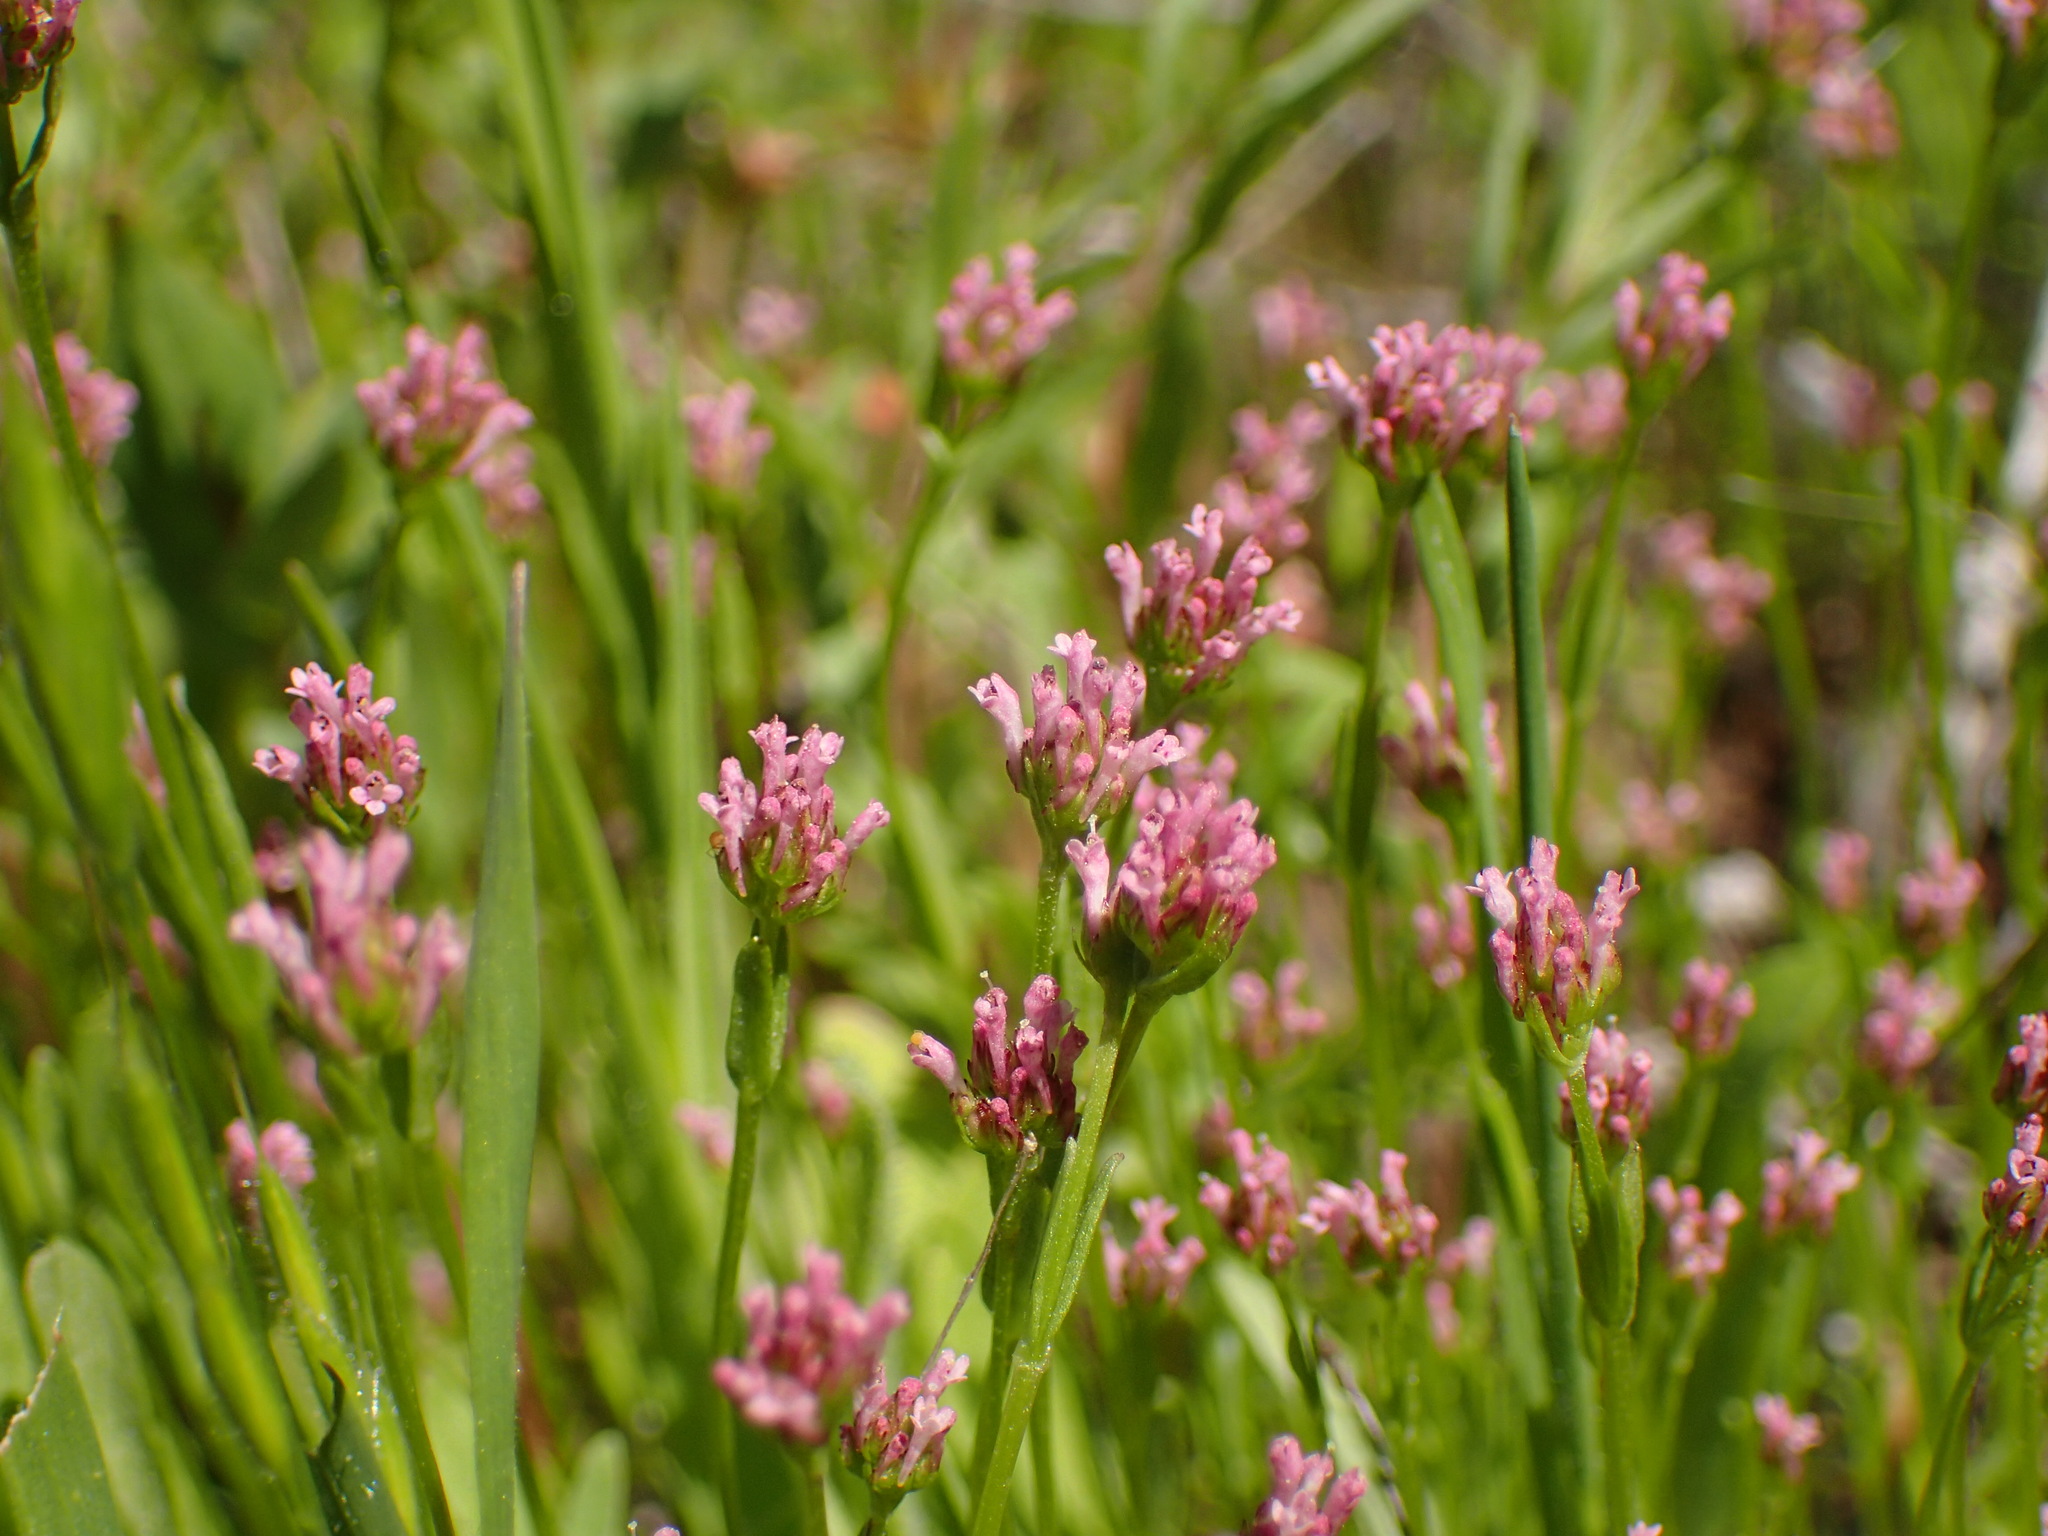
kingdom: Plantae
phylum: Tracheophyta
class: Magnoliopsida
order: Dipsacales
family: Caprifoliaceae
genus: Plectritis
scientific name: Plectritis ciliosa
